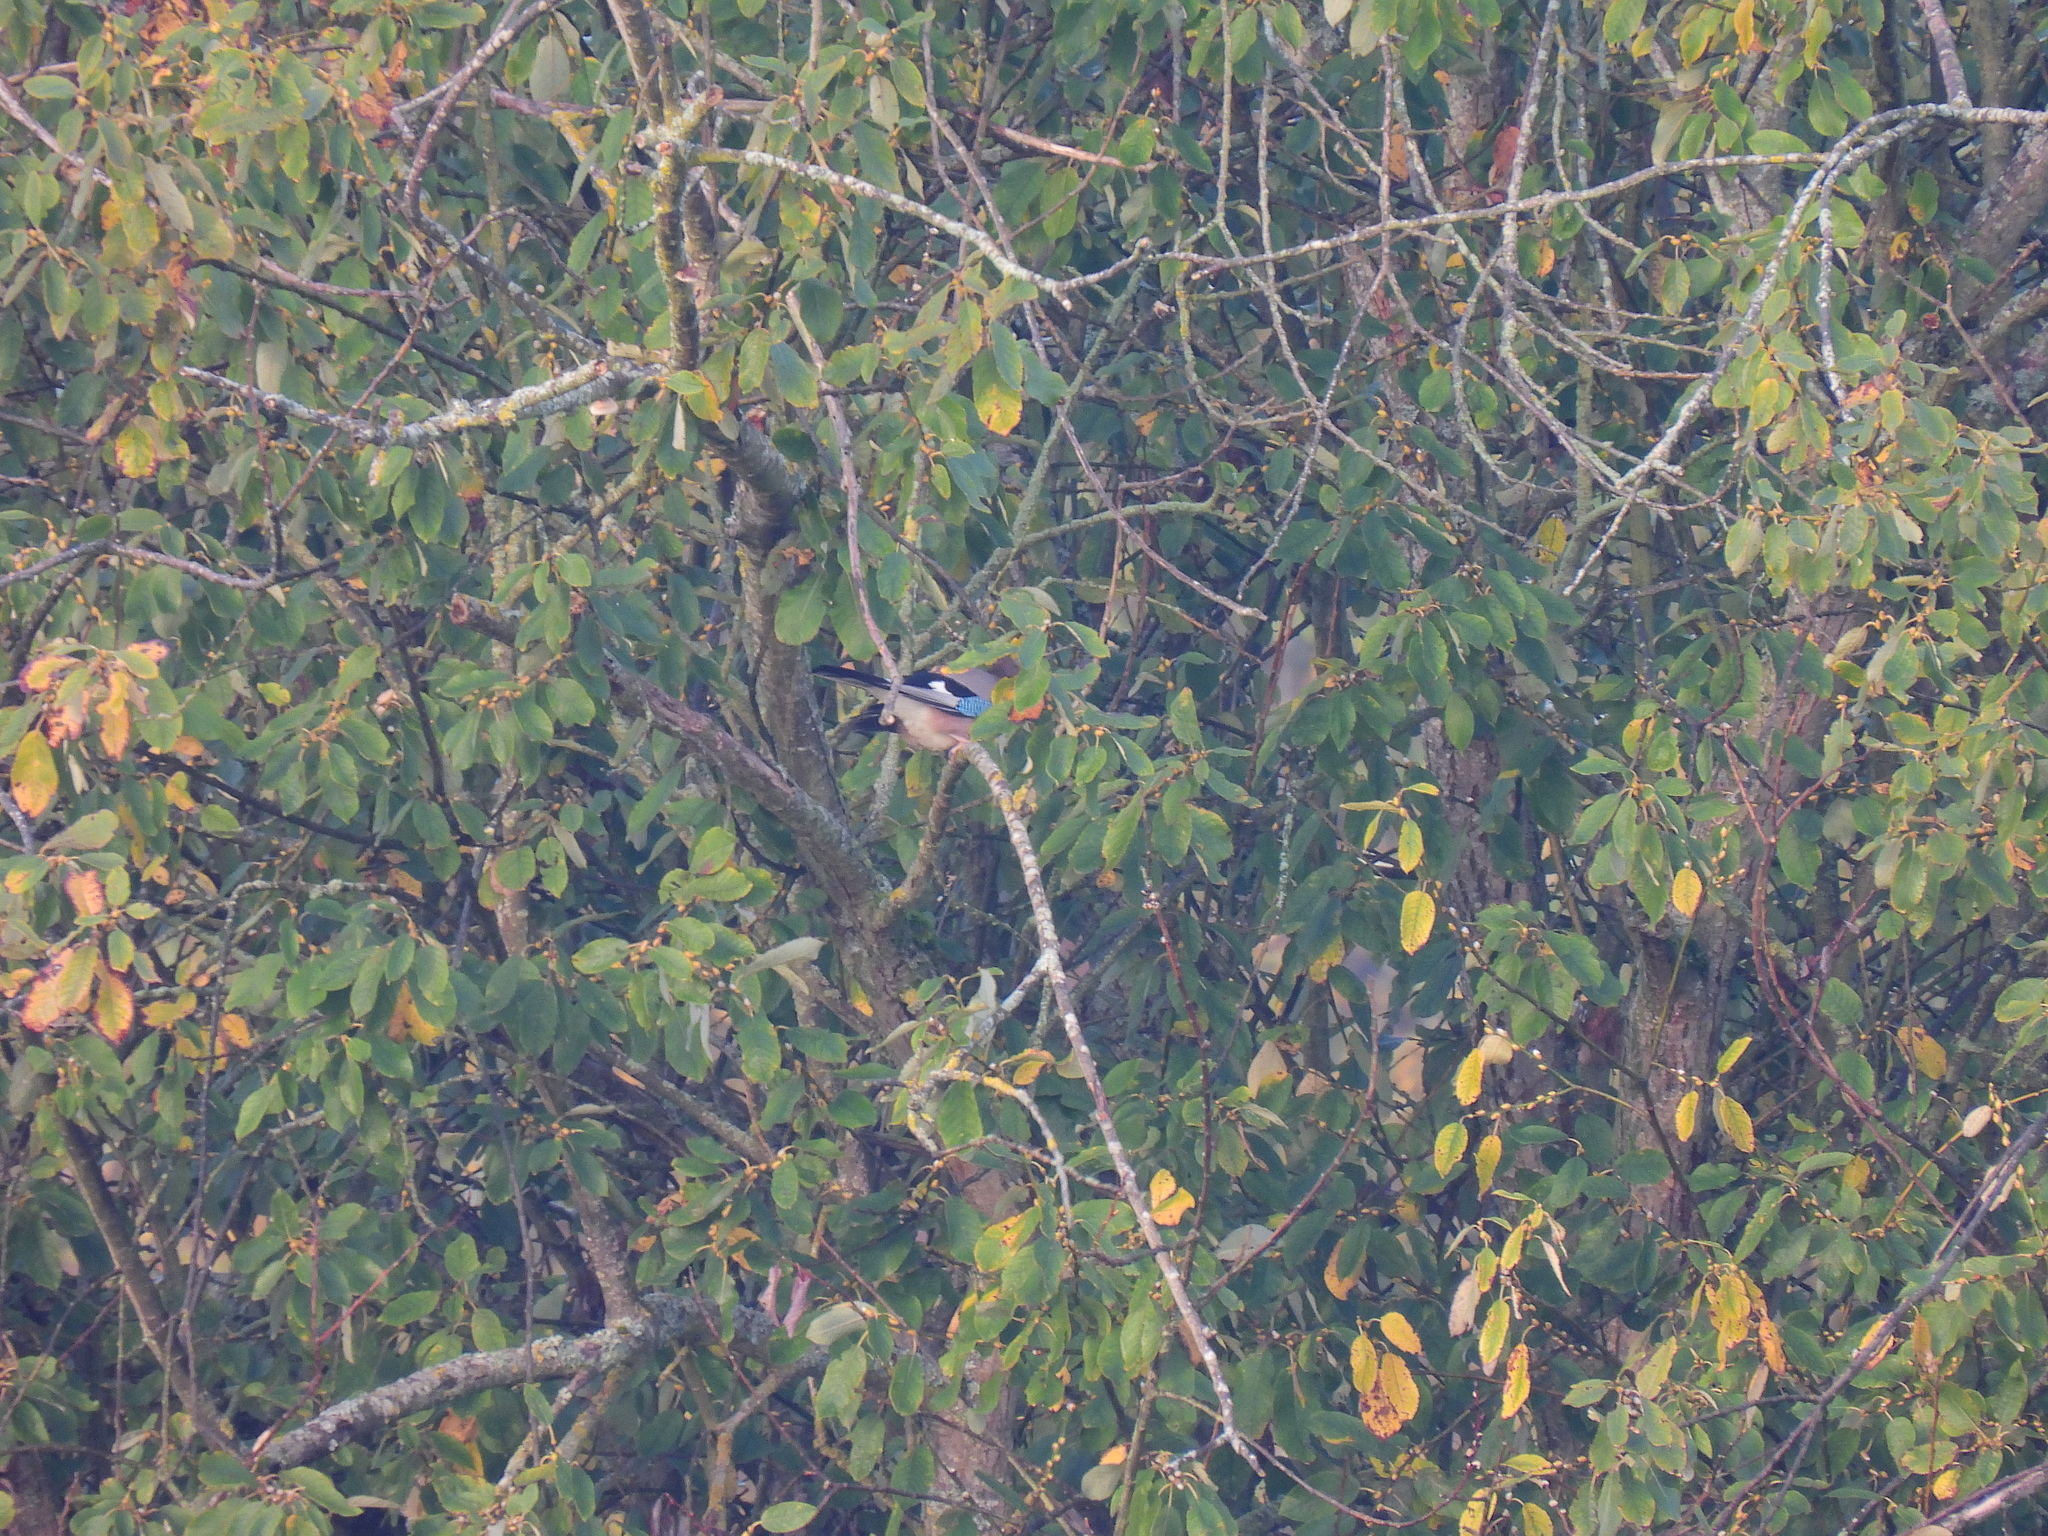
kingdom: Animalia
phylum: Chordata
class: Aves
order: Passeriformes
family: Corvidae
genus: Garrulus
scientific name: Garrulus glandarius
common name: Eurasian jay
